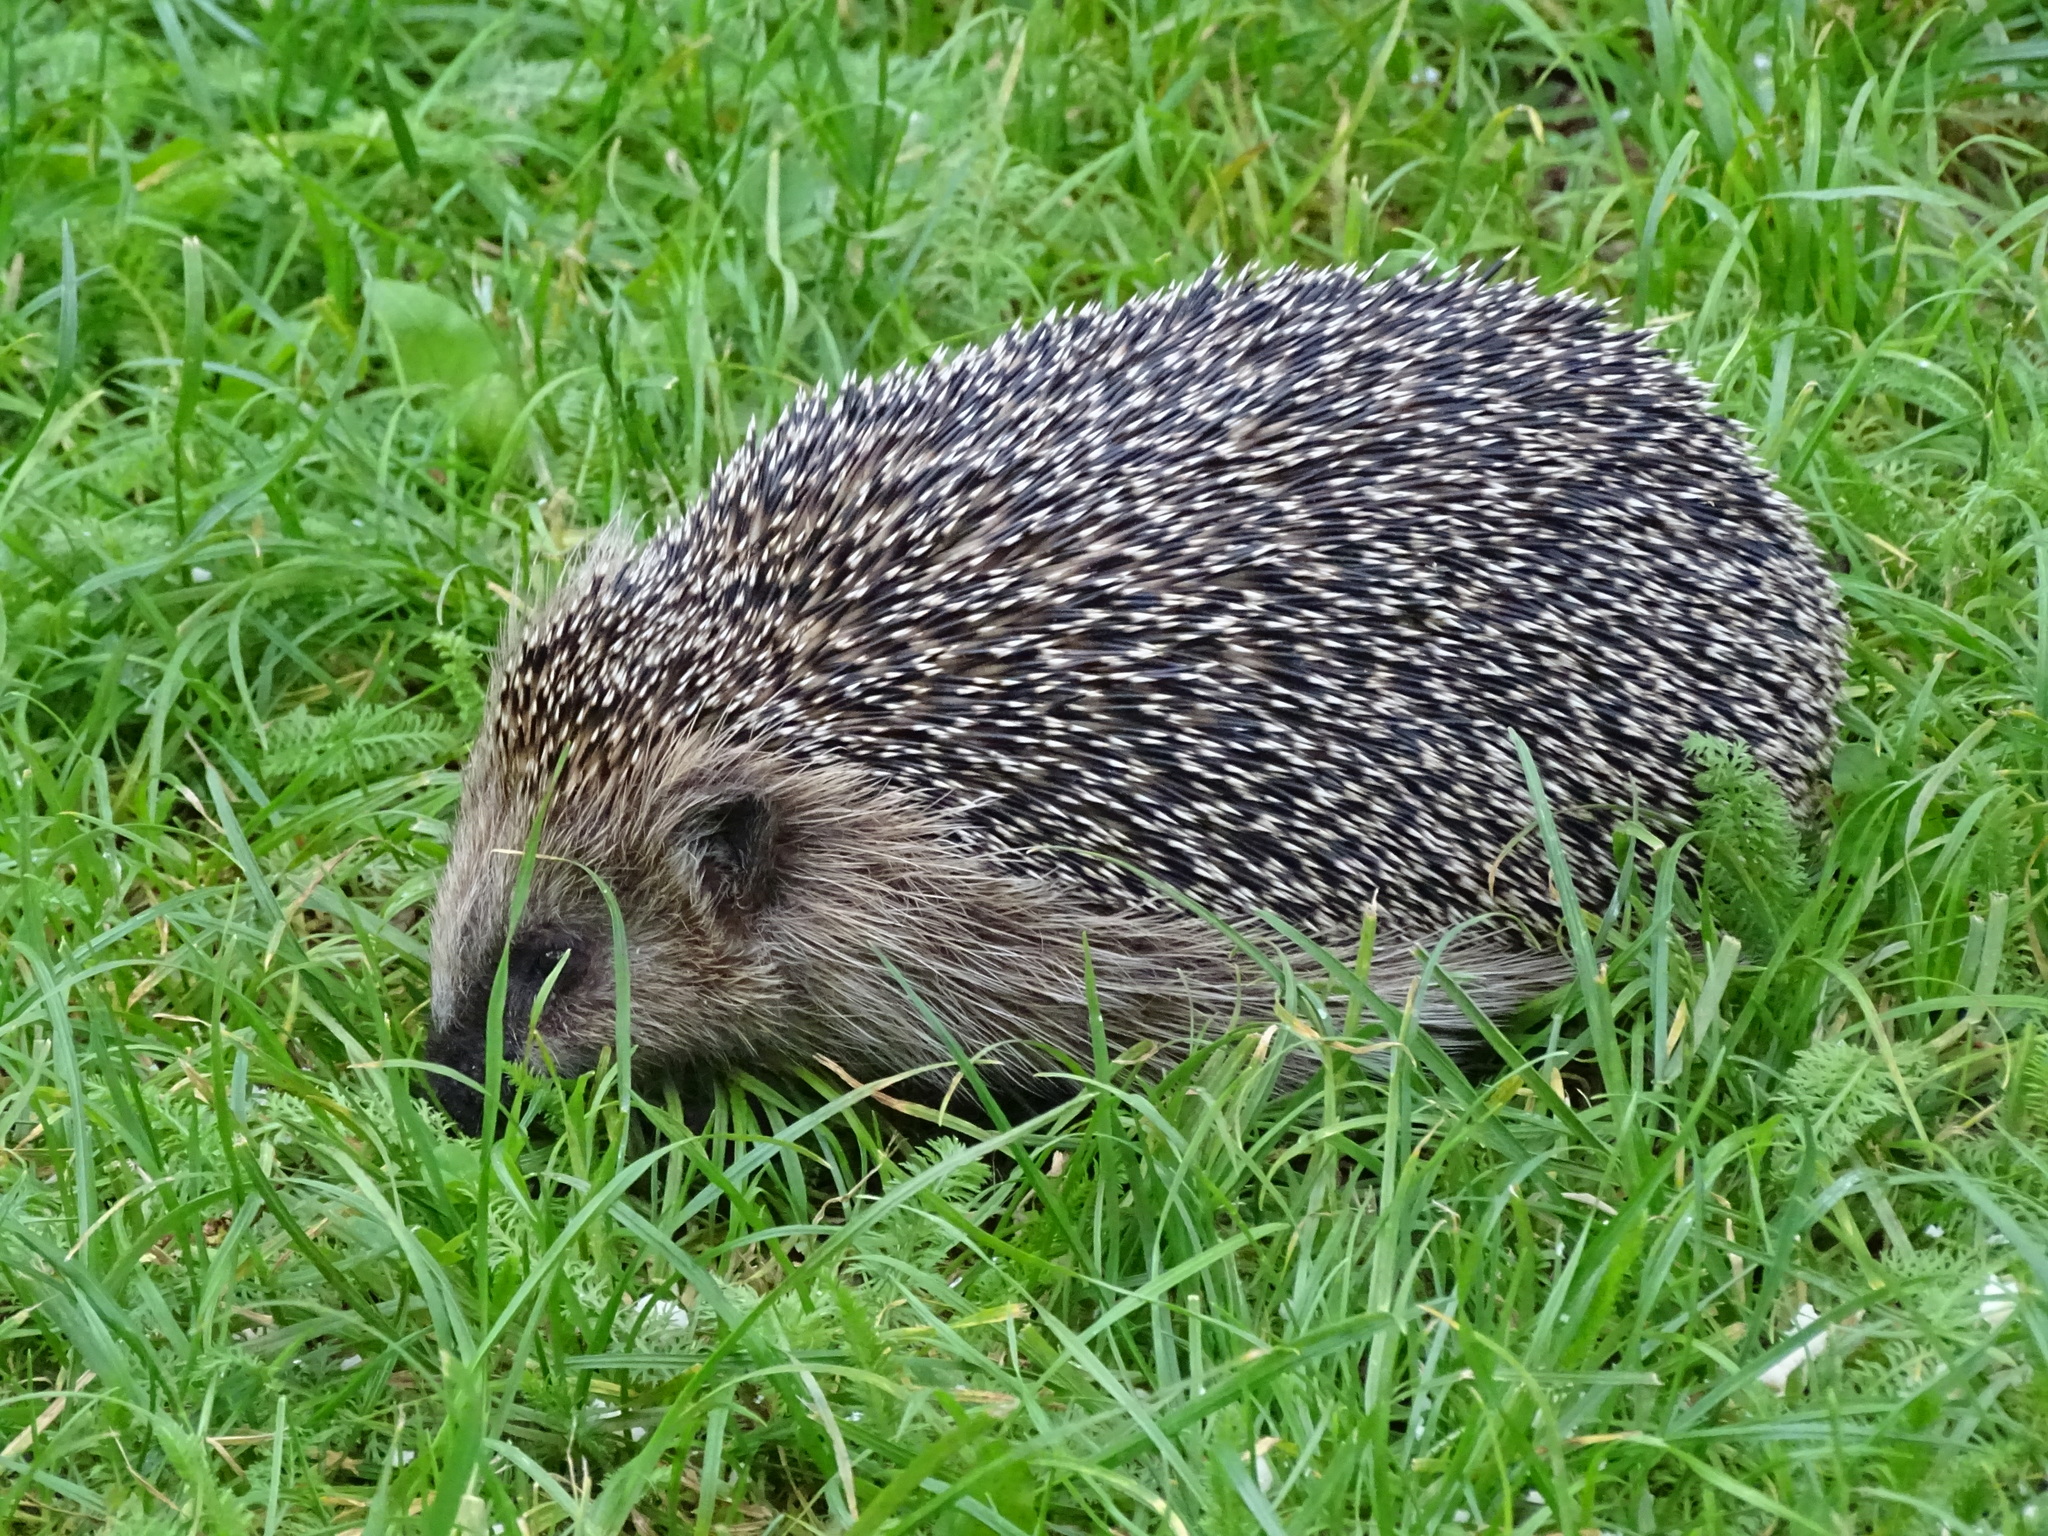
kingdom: Animalia
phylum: Chordata
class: Mammalia
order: Erinaceomorpha
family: Erinaceidae
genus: Erinaceus
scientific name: Erinaceus europaeus
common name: West european hedgehog
